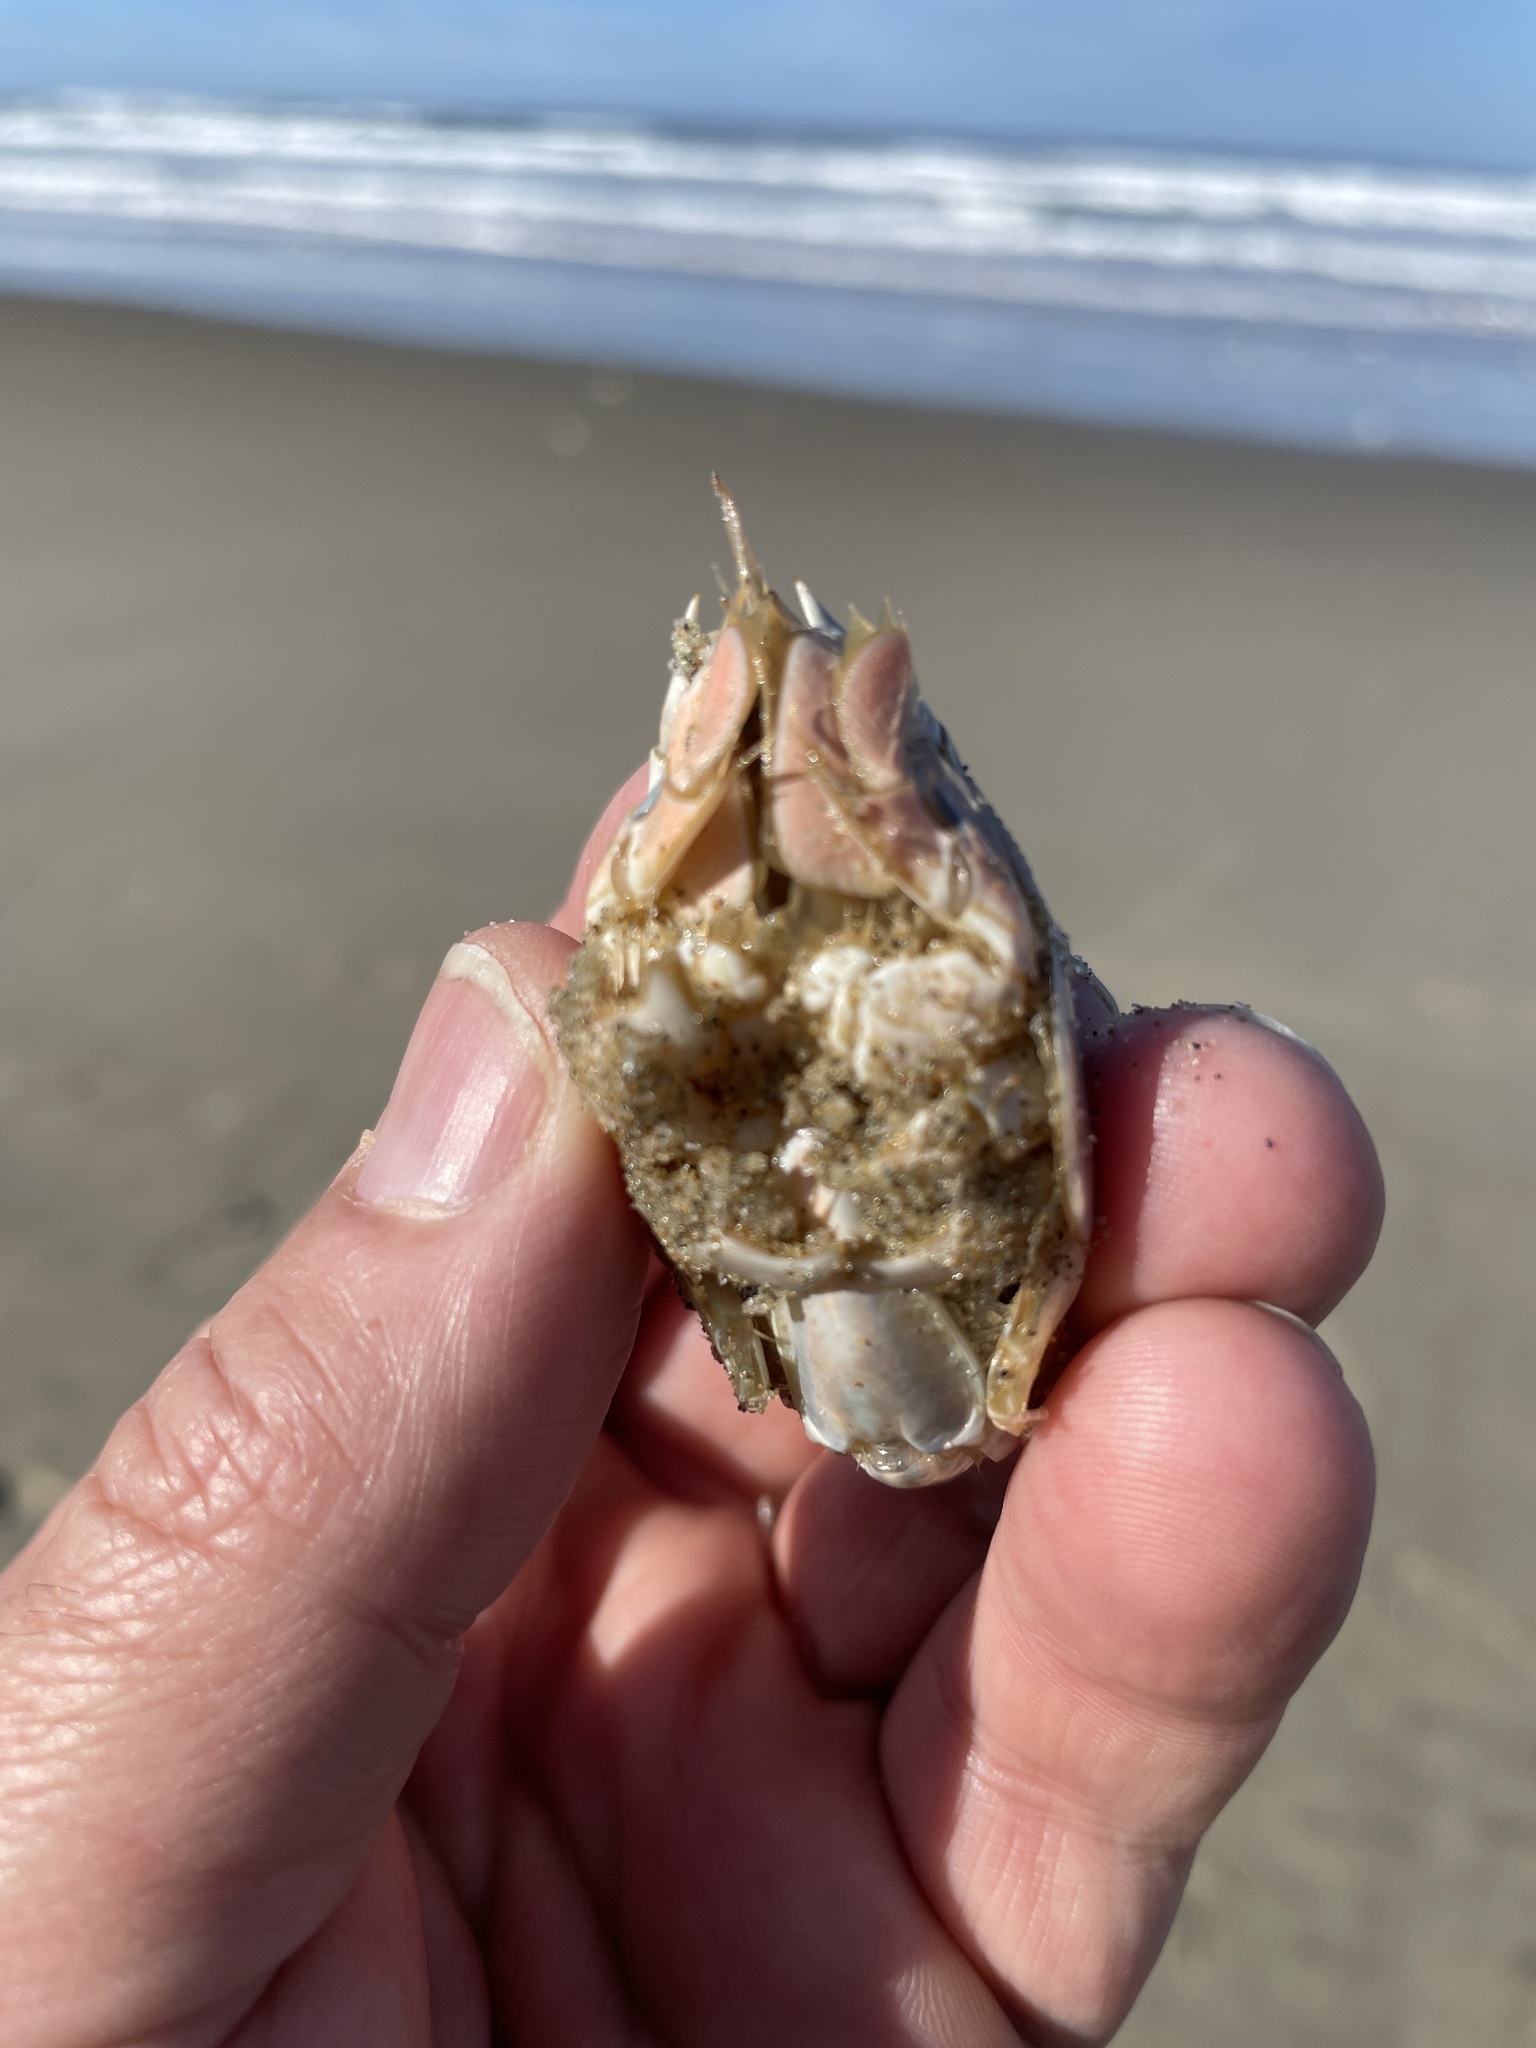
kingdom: Animalia
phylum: Arthropoda
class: Malacostraca
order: Decapoda
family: Hippidae
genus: Emerita
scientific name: Emerita analoga
